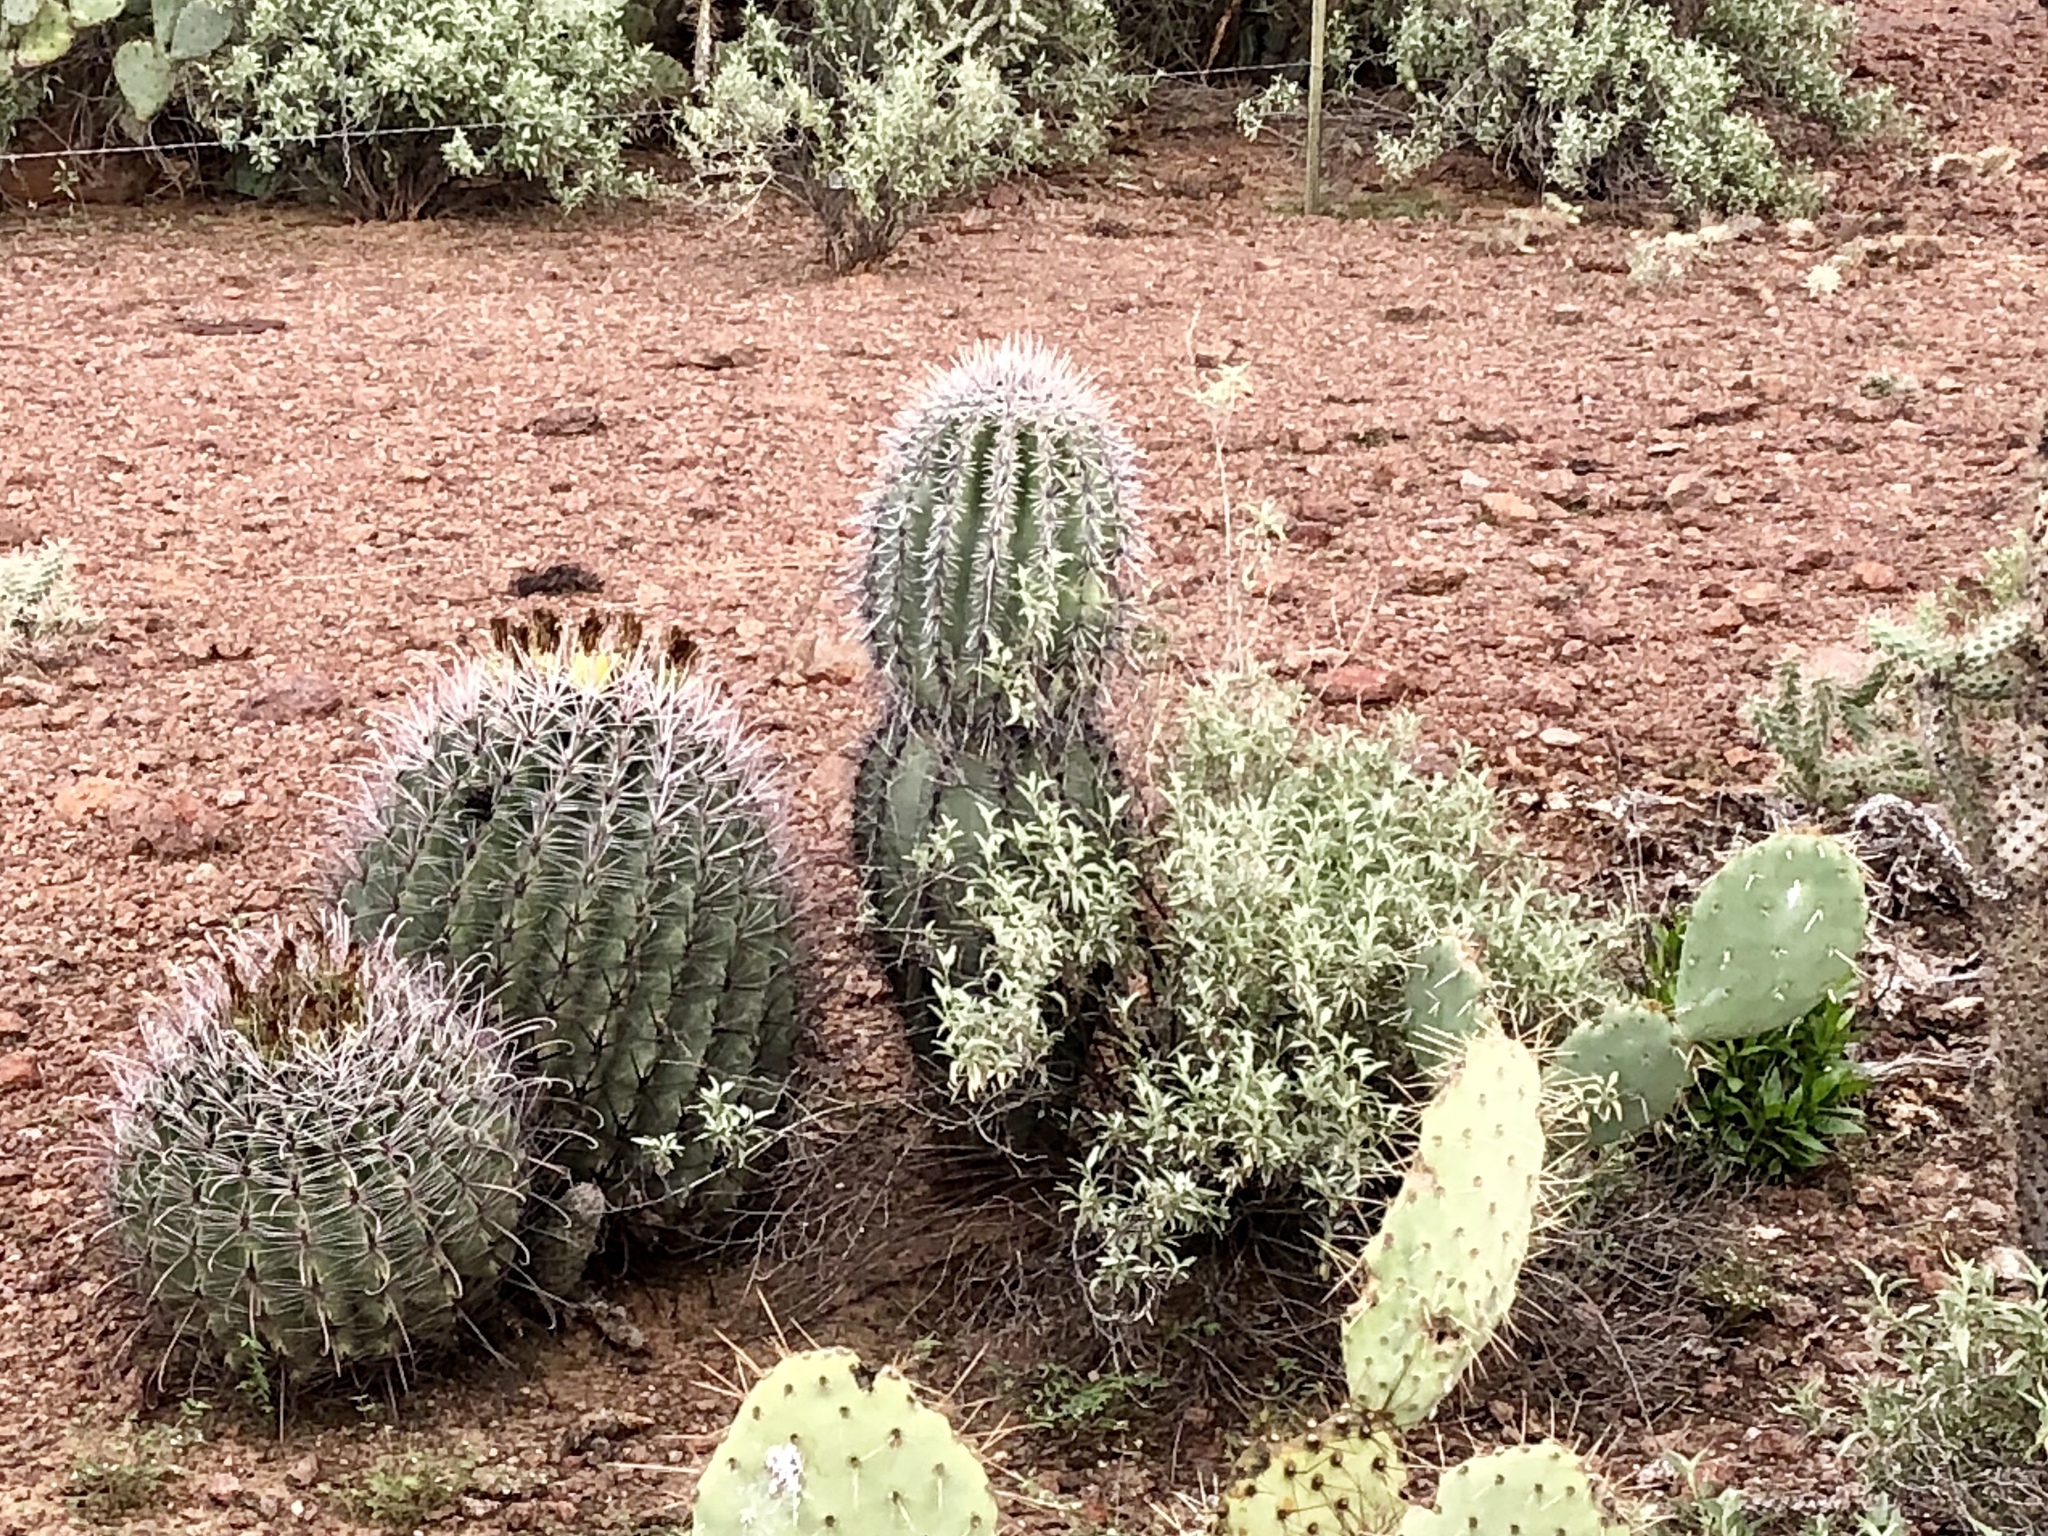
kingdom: Plantae
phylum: Tracheophyta
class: Magnoliopsida
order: Caryophyllales
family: Cactaceae
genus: Carnegiea
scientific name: Carnegiea gigantea
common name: Saguaro
